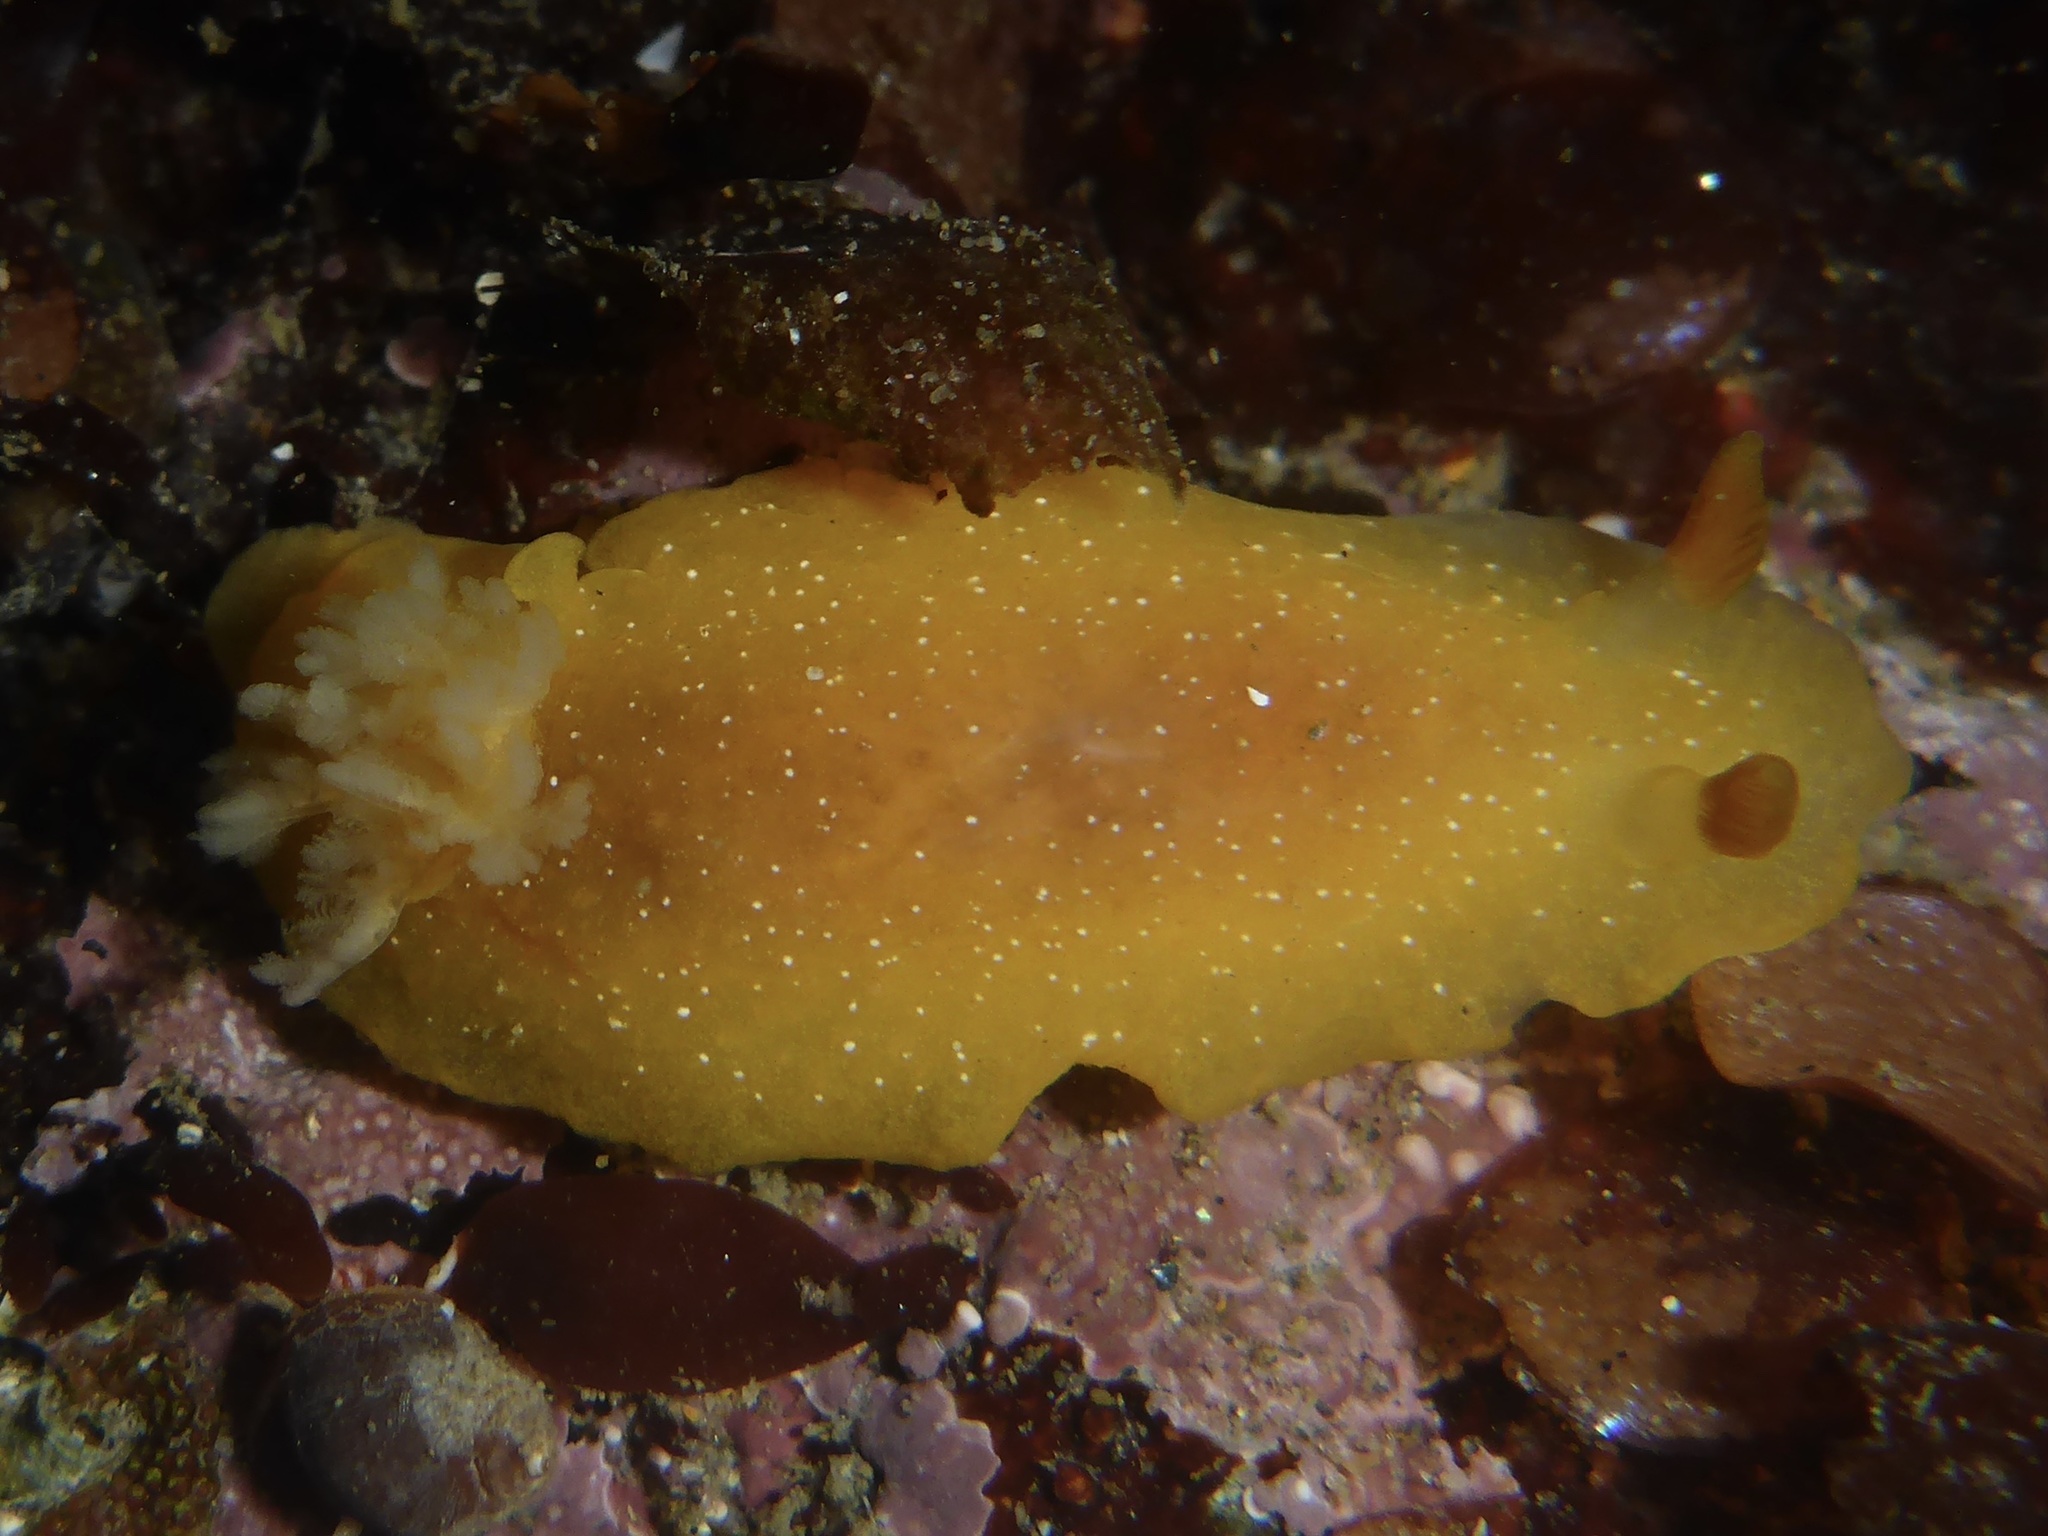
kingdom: Animalia
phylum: Mollusca
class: Gastropoda
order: Nudibranchia
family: Dendrodorididae
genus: Doriopsilla
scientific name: Doriopsilla fulva
